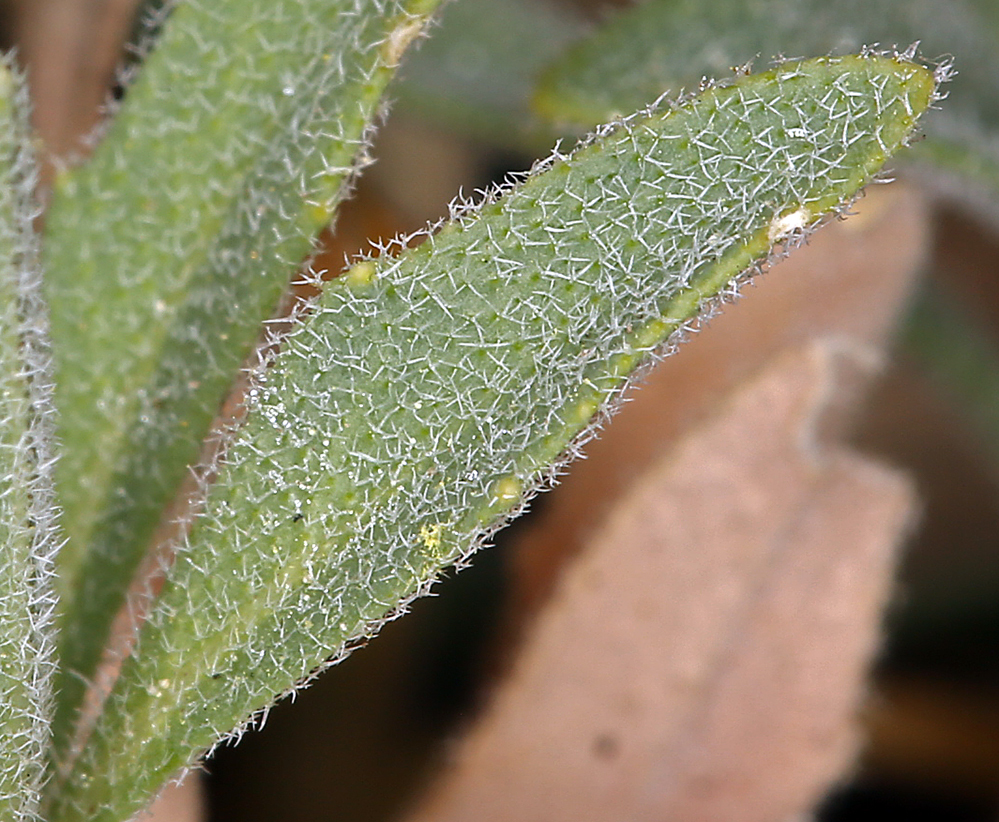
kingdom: Plantae
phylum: Tracheophyta
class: Magnoliopsida
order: Brassicales
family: Brassicaceae
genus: Boechera
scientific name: Boechera arcuata
